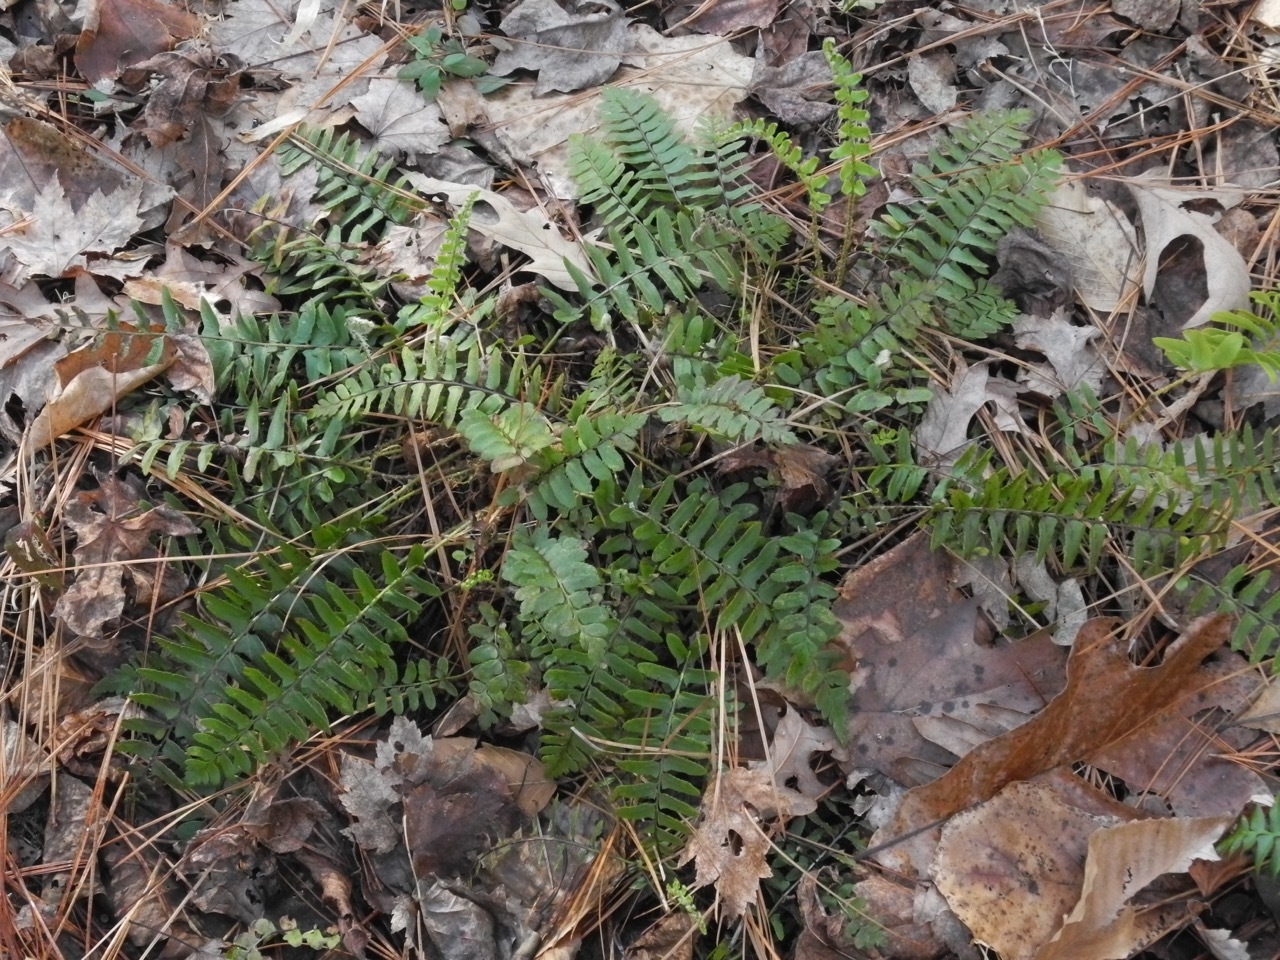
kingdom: Plantae
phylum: Tracheophyta
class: Polypodiopsida
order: Polypodiales
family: Dryopteridaceae
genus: Polystichum
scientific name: Polystichum acrostichoides
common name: Christmas fern
